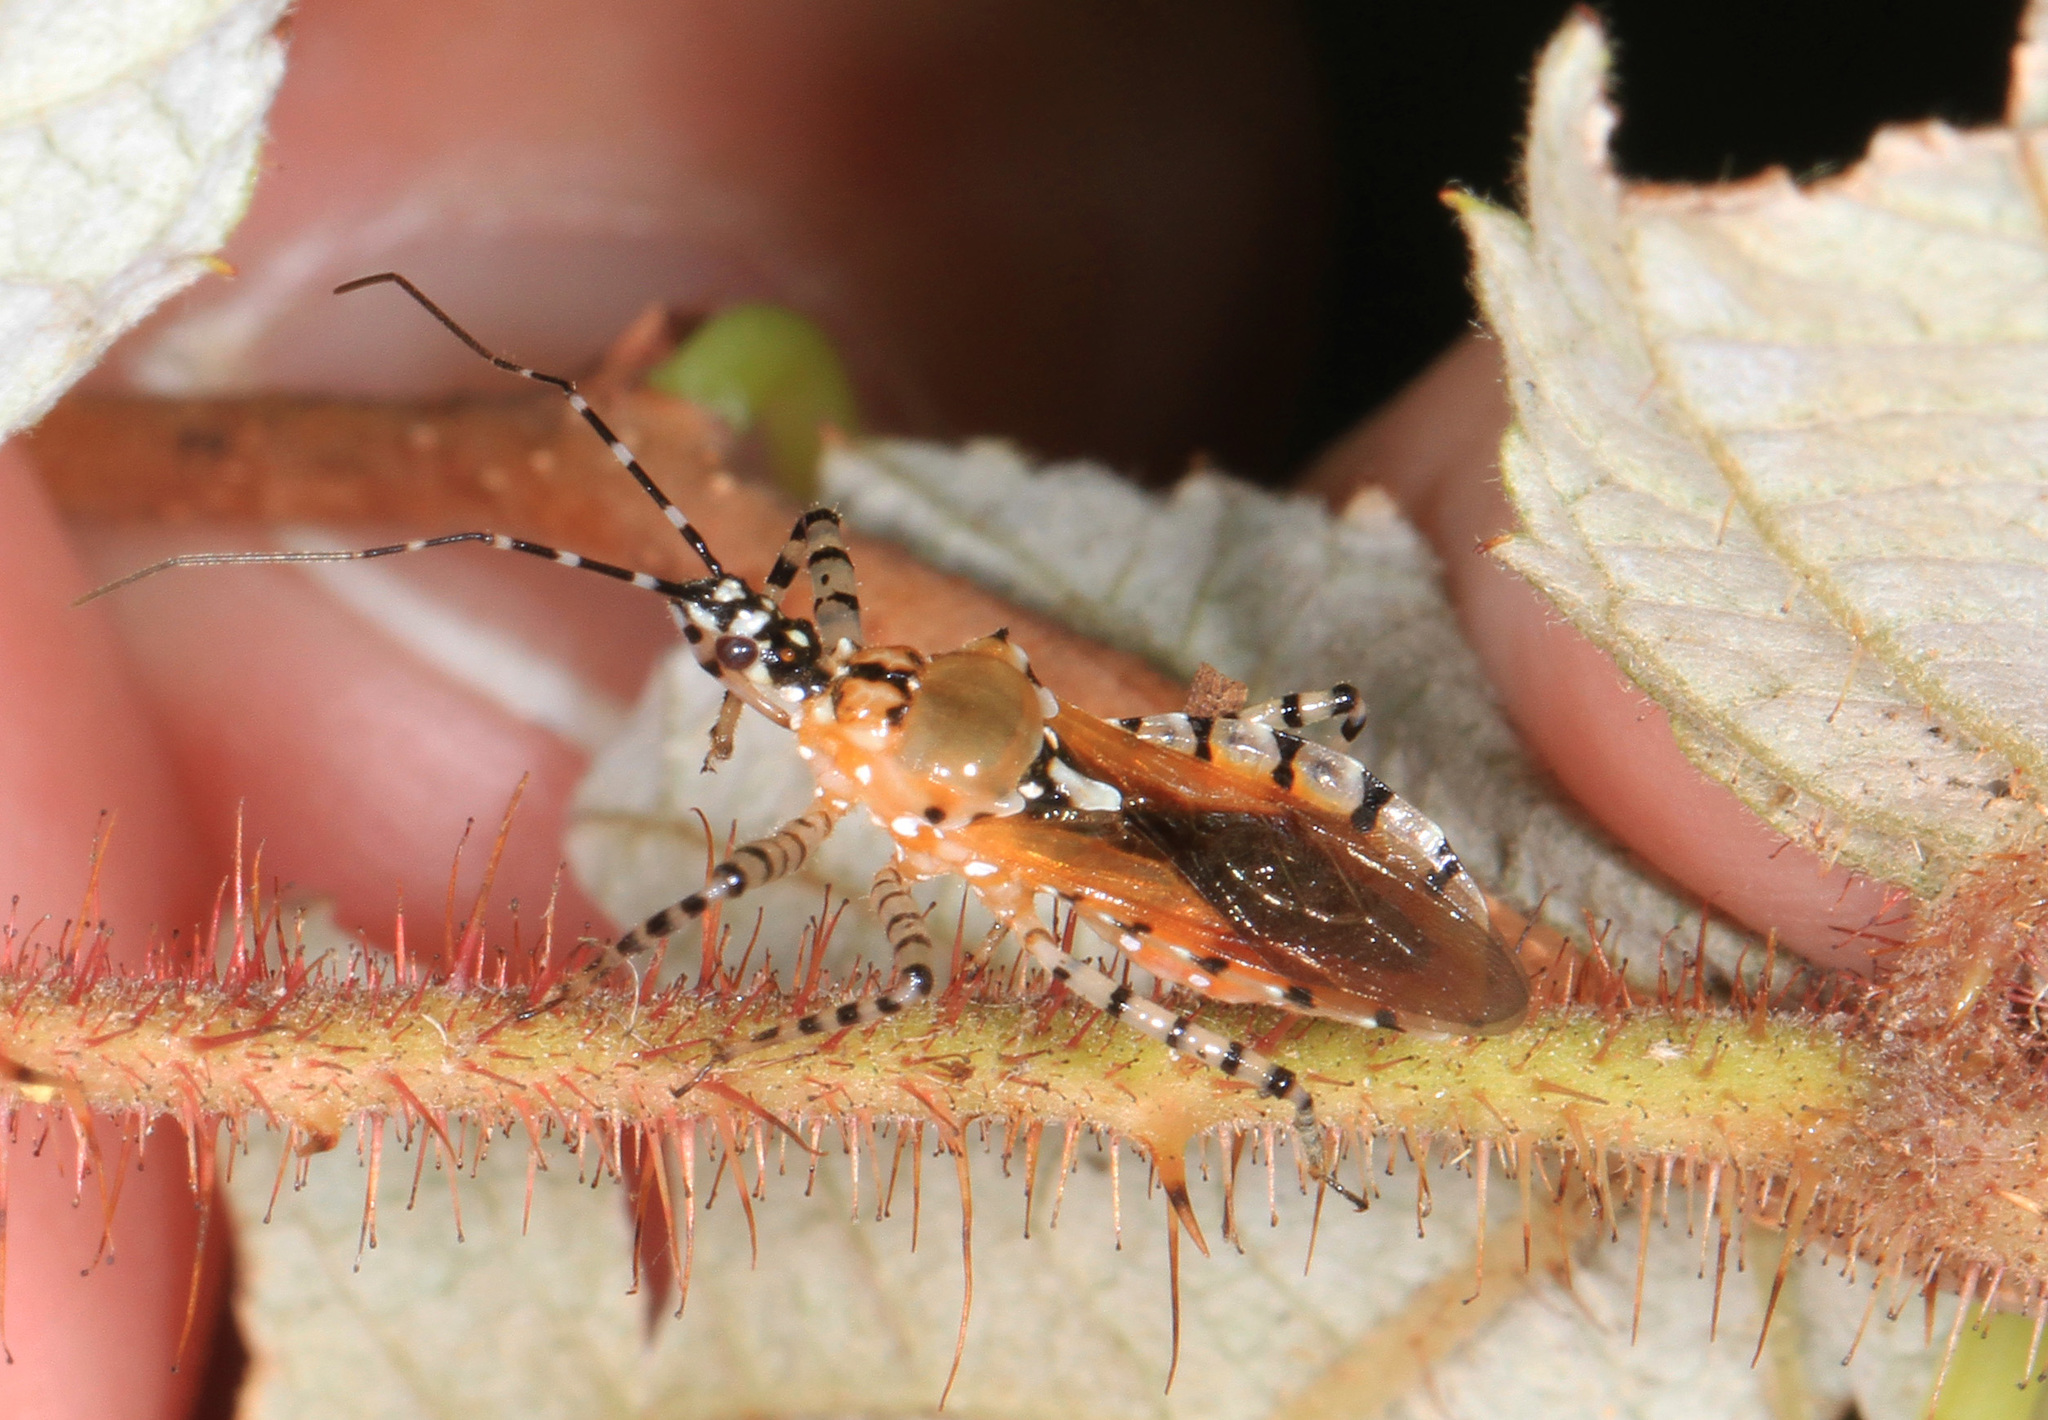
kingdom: Animalia
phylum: Arthropoda
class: Insecta
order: Hemiptera
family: Reduviidae
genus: Pselliopus
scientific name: Pselliopus cinctus
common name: Ringed assassin bug
